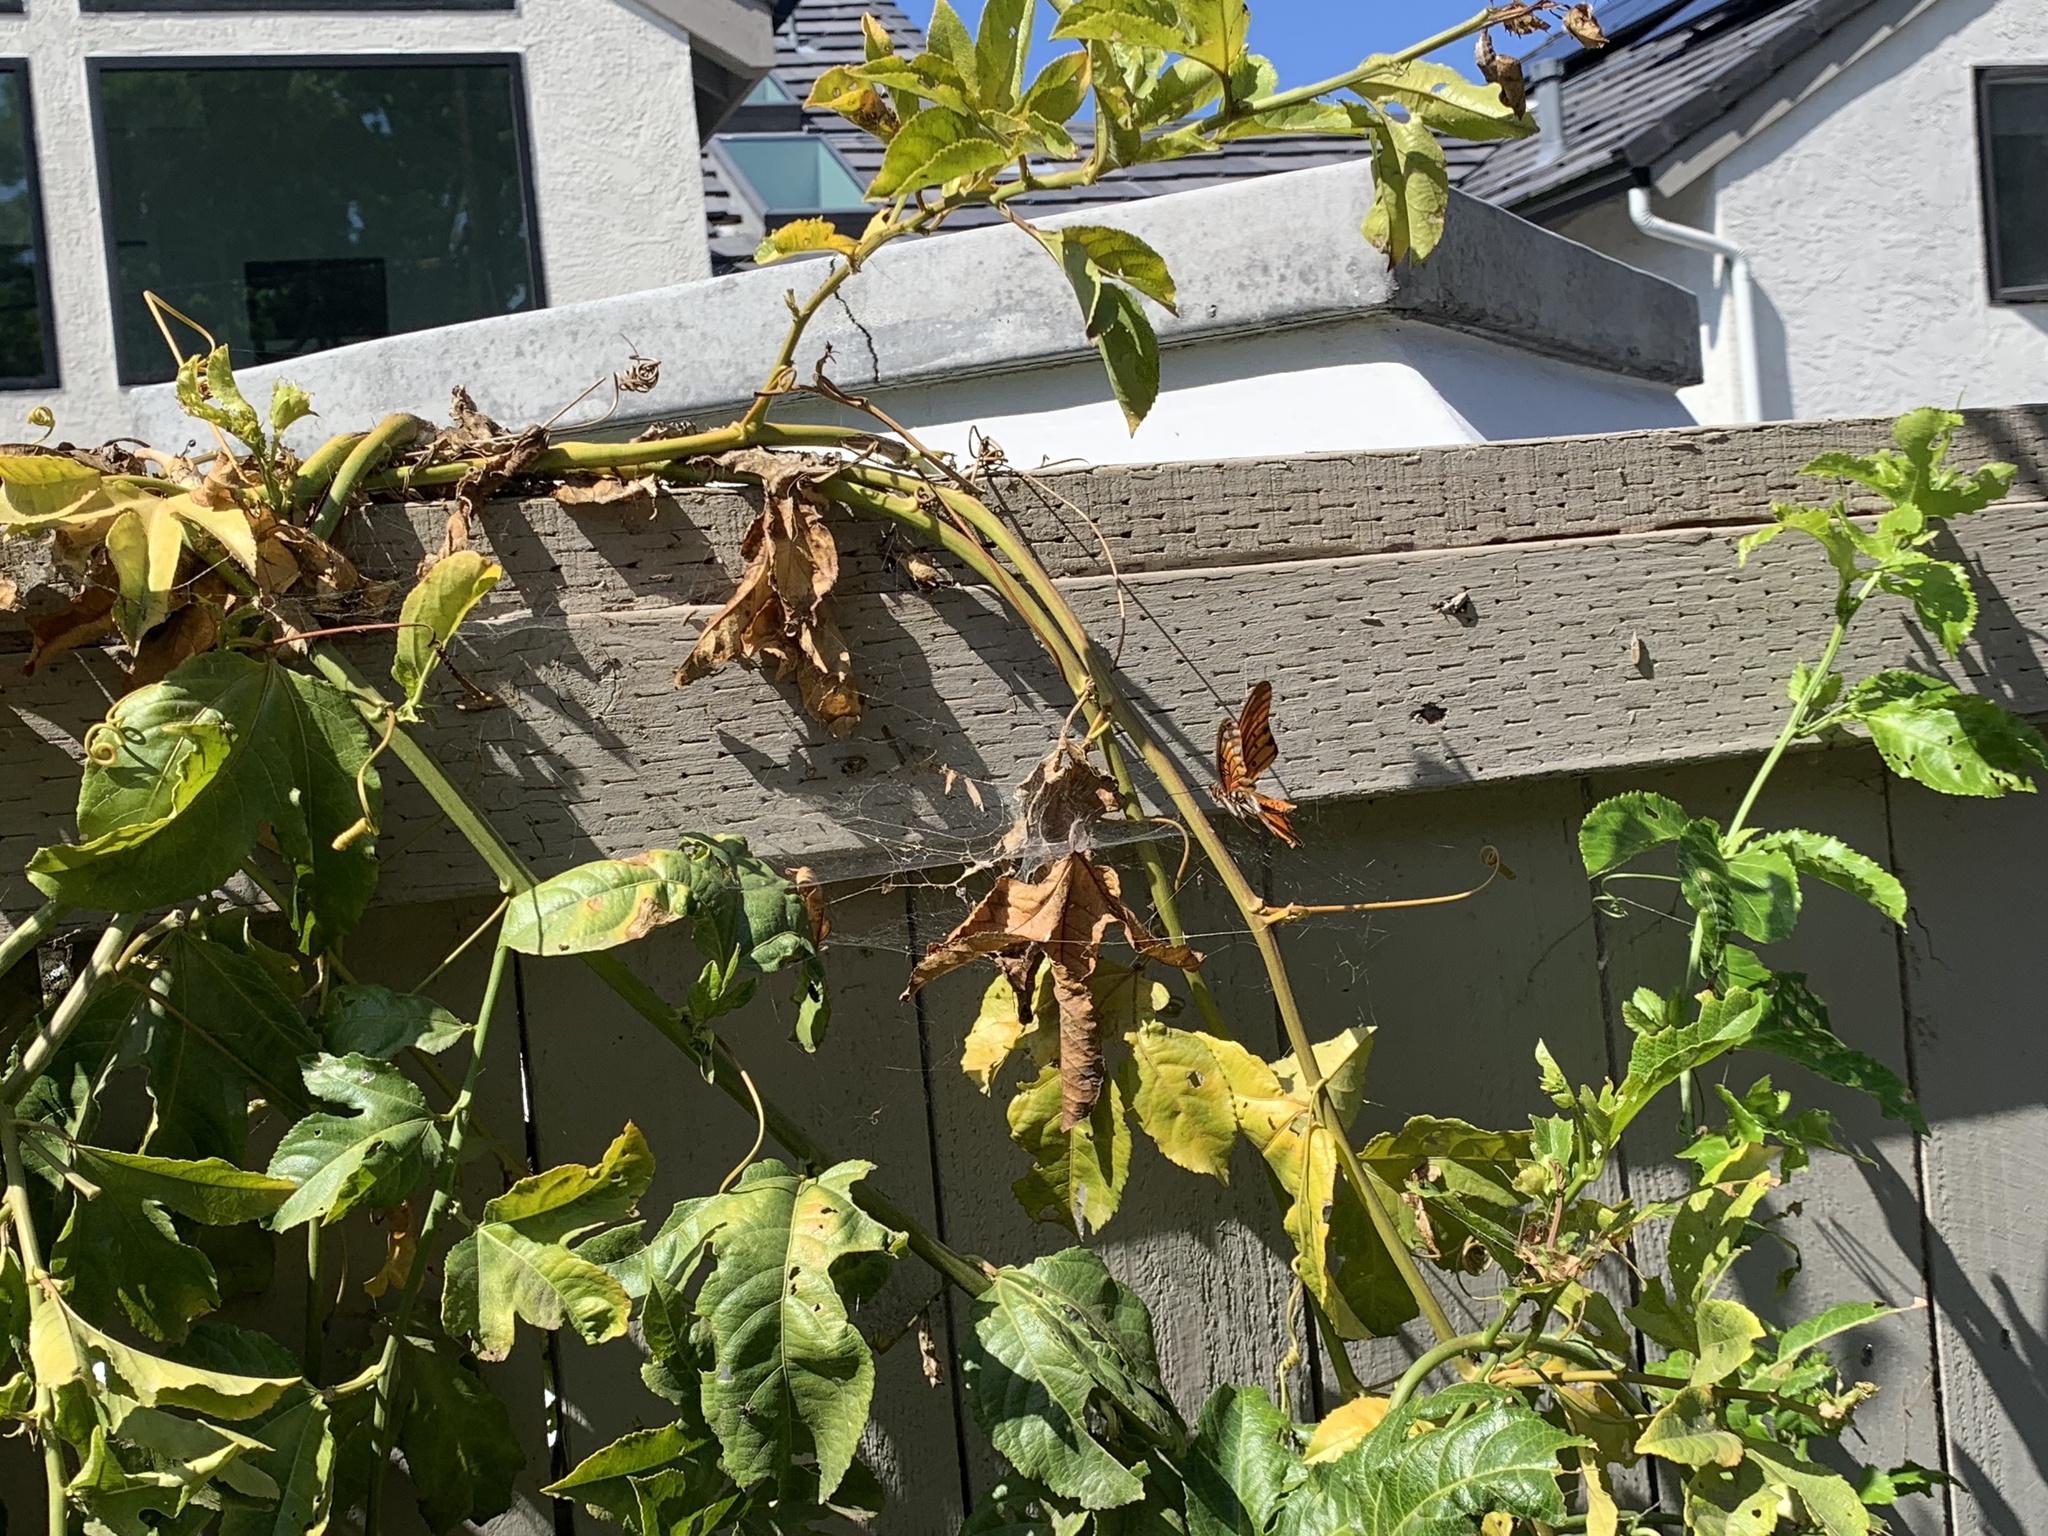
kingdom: Animalia
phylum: Arthropoda
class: Insecta
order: Lepidoptera
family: Nymphalidae
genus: Dione
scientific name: Dione vanillae
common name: Gulf fritillary
